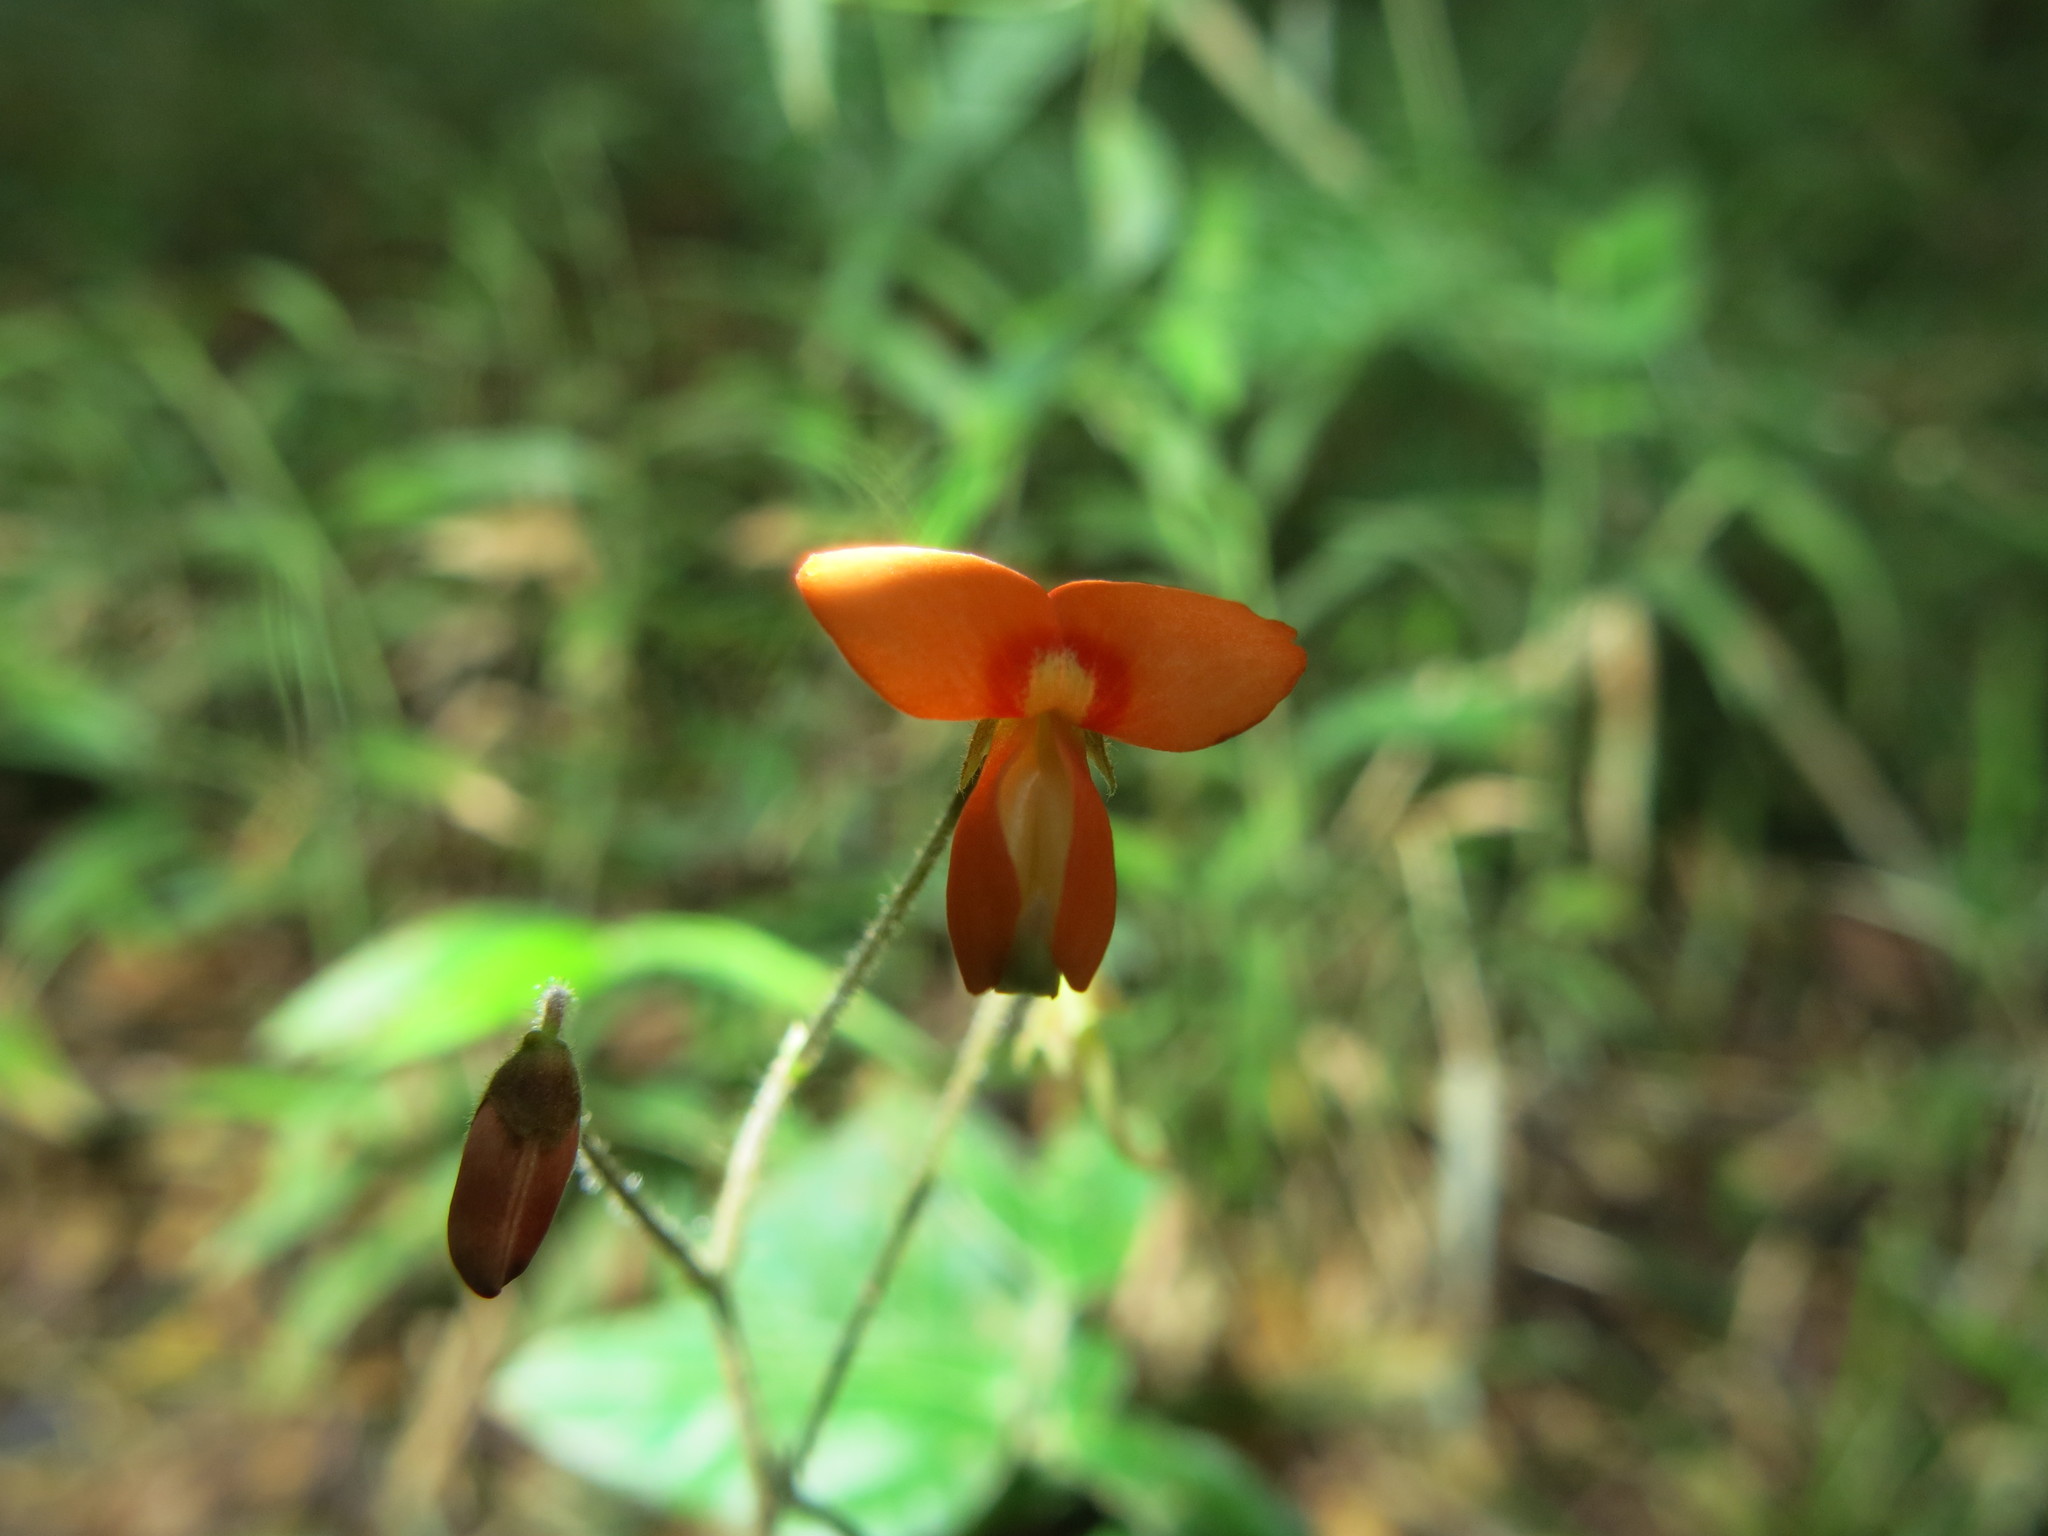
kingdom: Plantae
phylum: Tracheophyta
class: Magnoliopsida
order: Fabales
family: Fabaceae
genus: Hylodesmum
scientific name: Hylodesmum repandum
